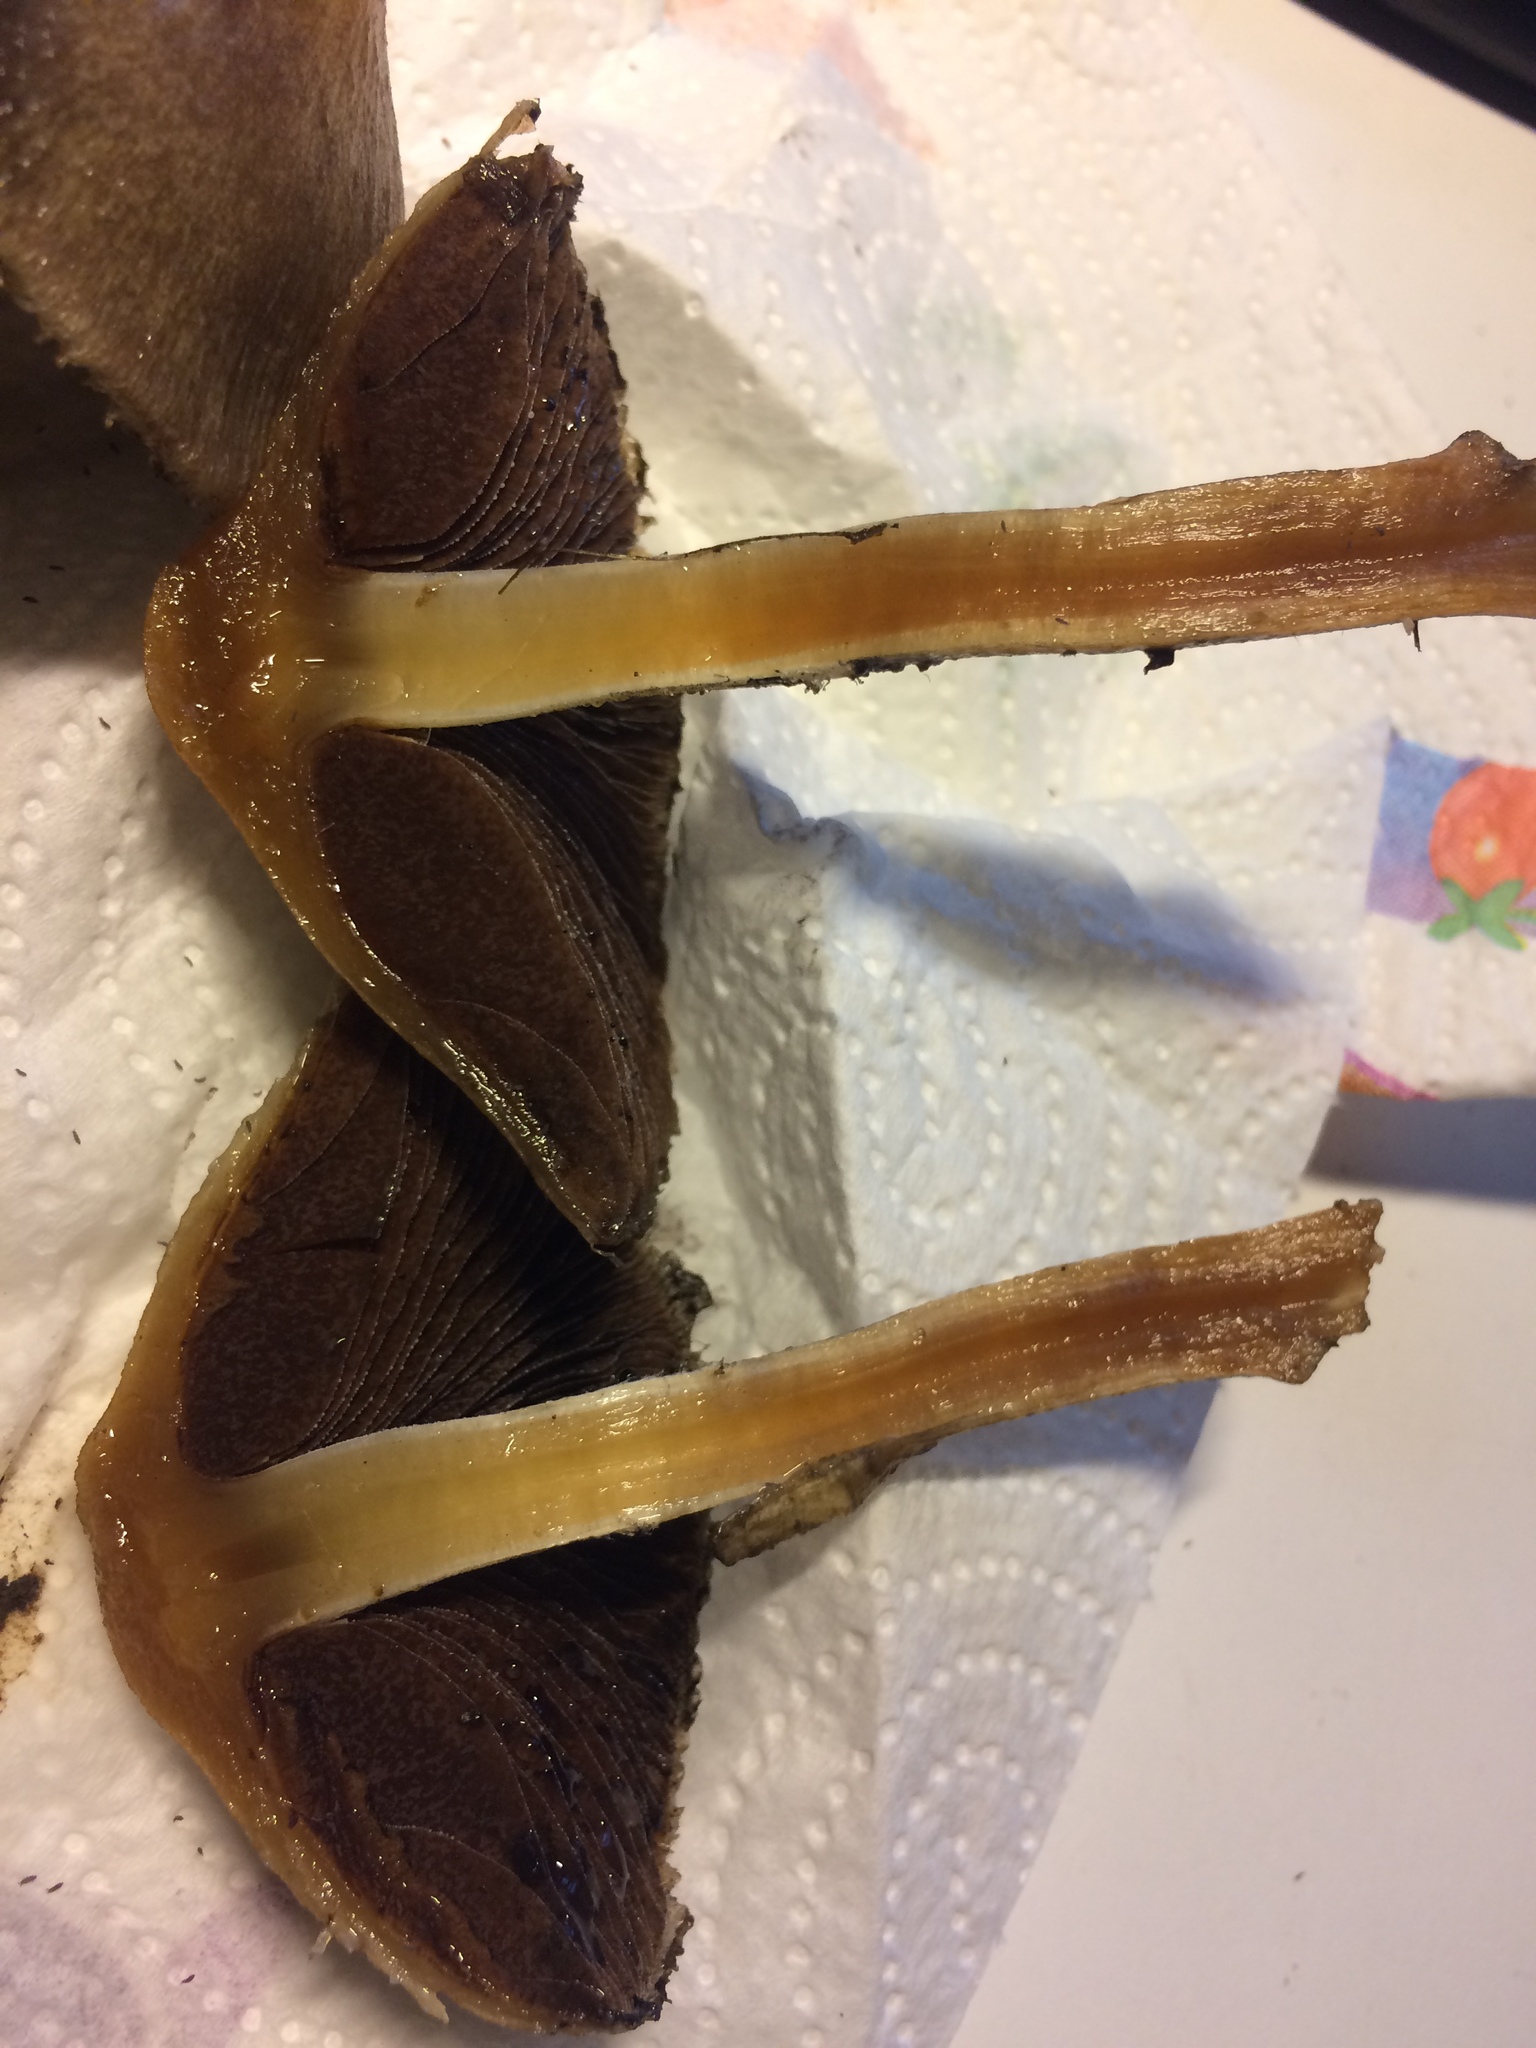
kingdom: Fungi
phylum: Basidiomycota
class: Agaricomycetes
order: Agaricales
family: Strophariaceae
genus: Hypholoma
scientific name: Hypholoma fasciculare
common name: Sulphur tuft
